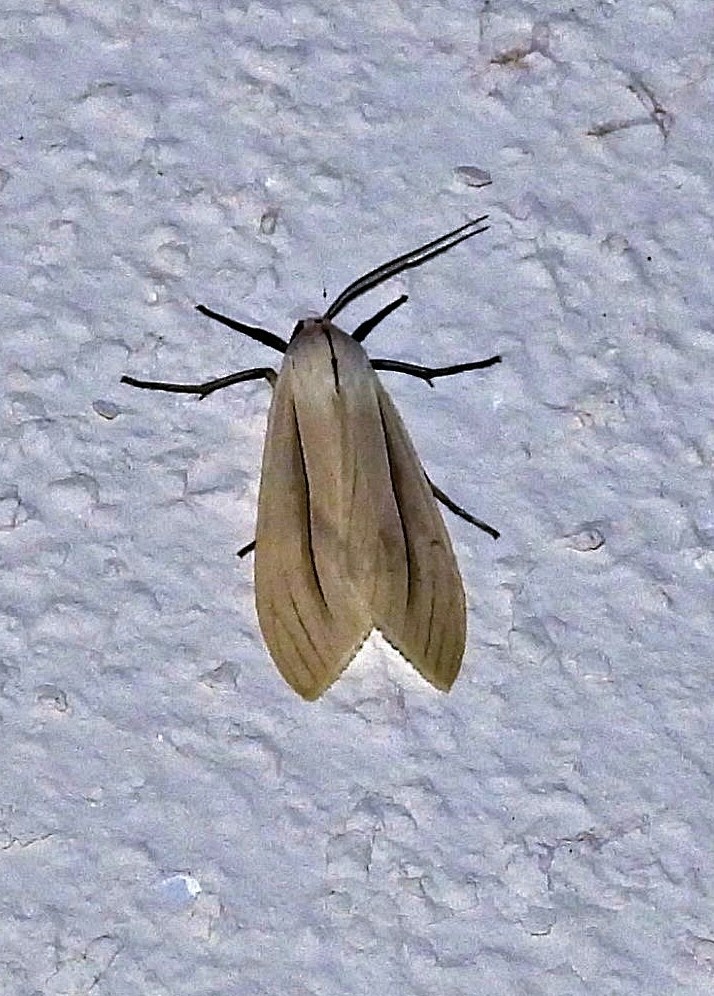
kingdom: Animalia
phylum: Arthropoda
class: Insecta
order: Lepidoptera
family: Erebidae
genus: Biturix
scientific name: Biturix rectilinea
